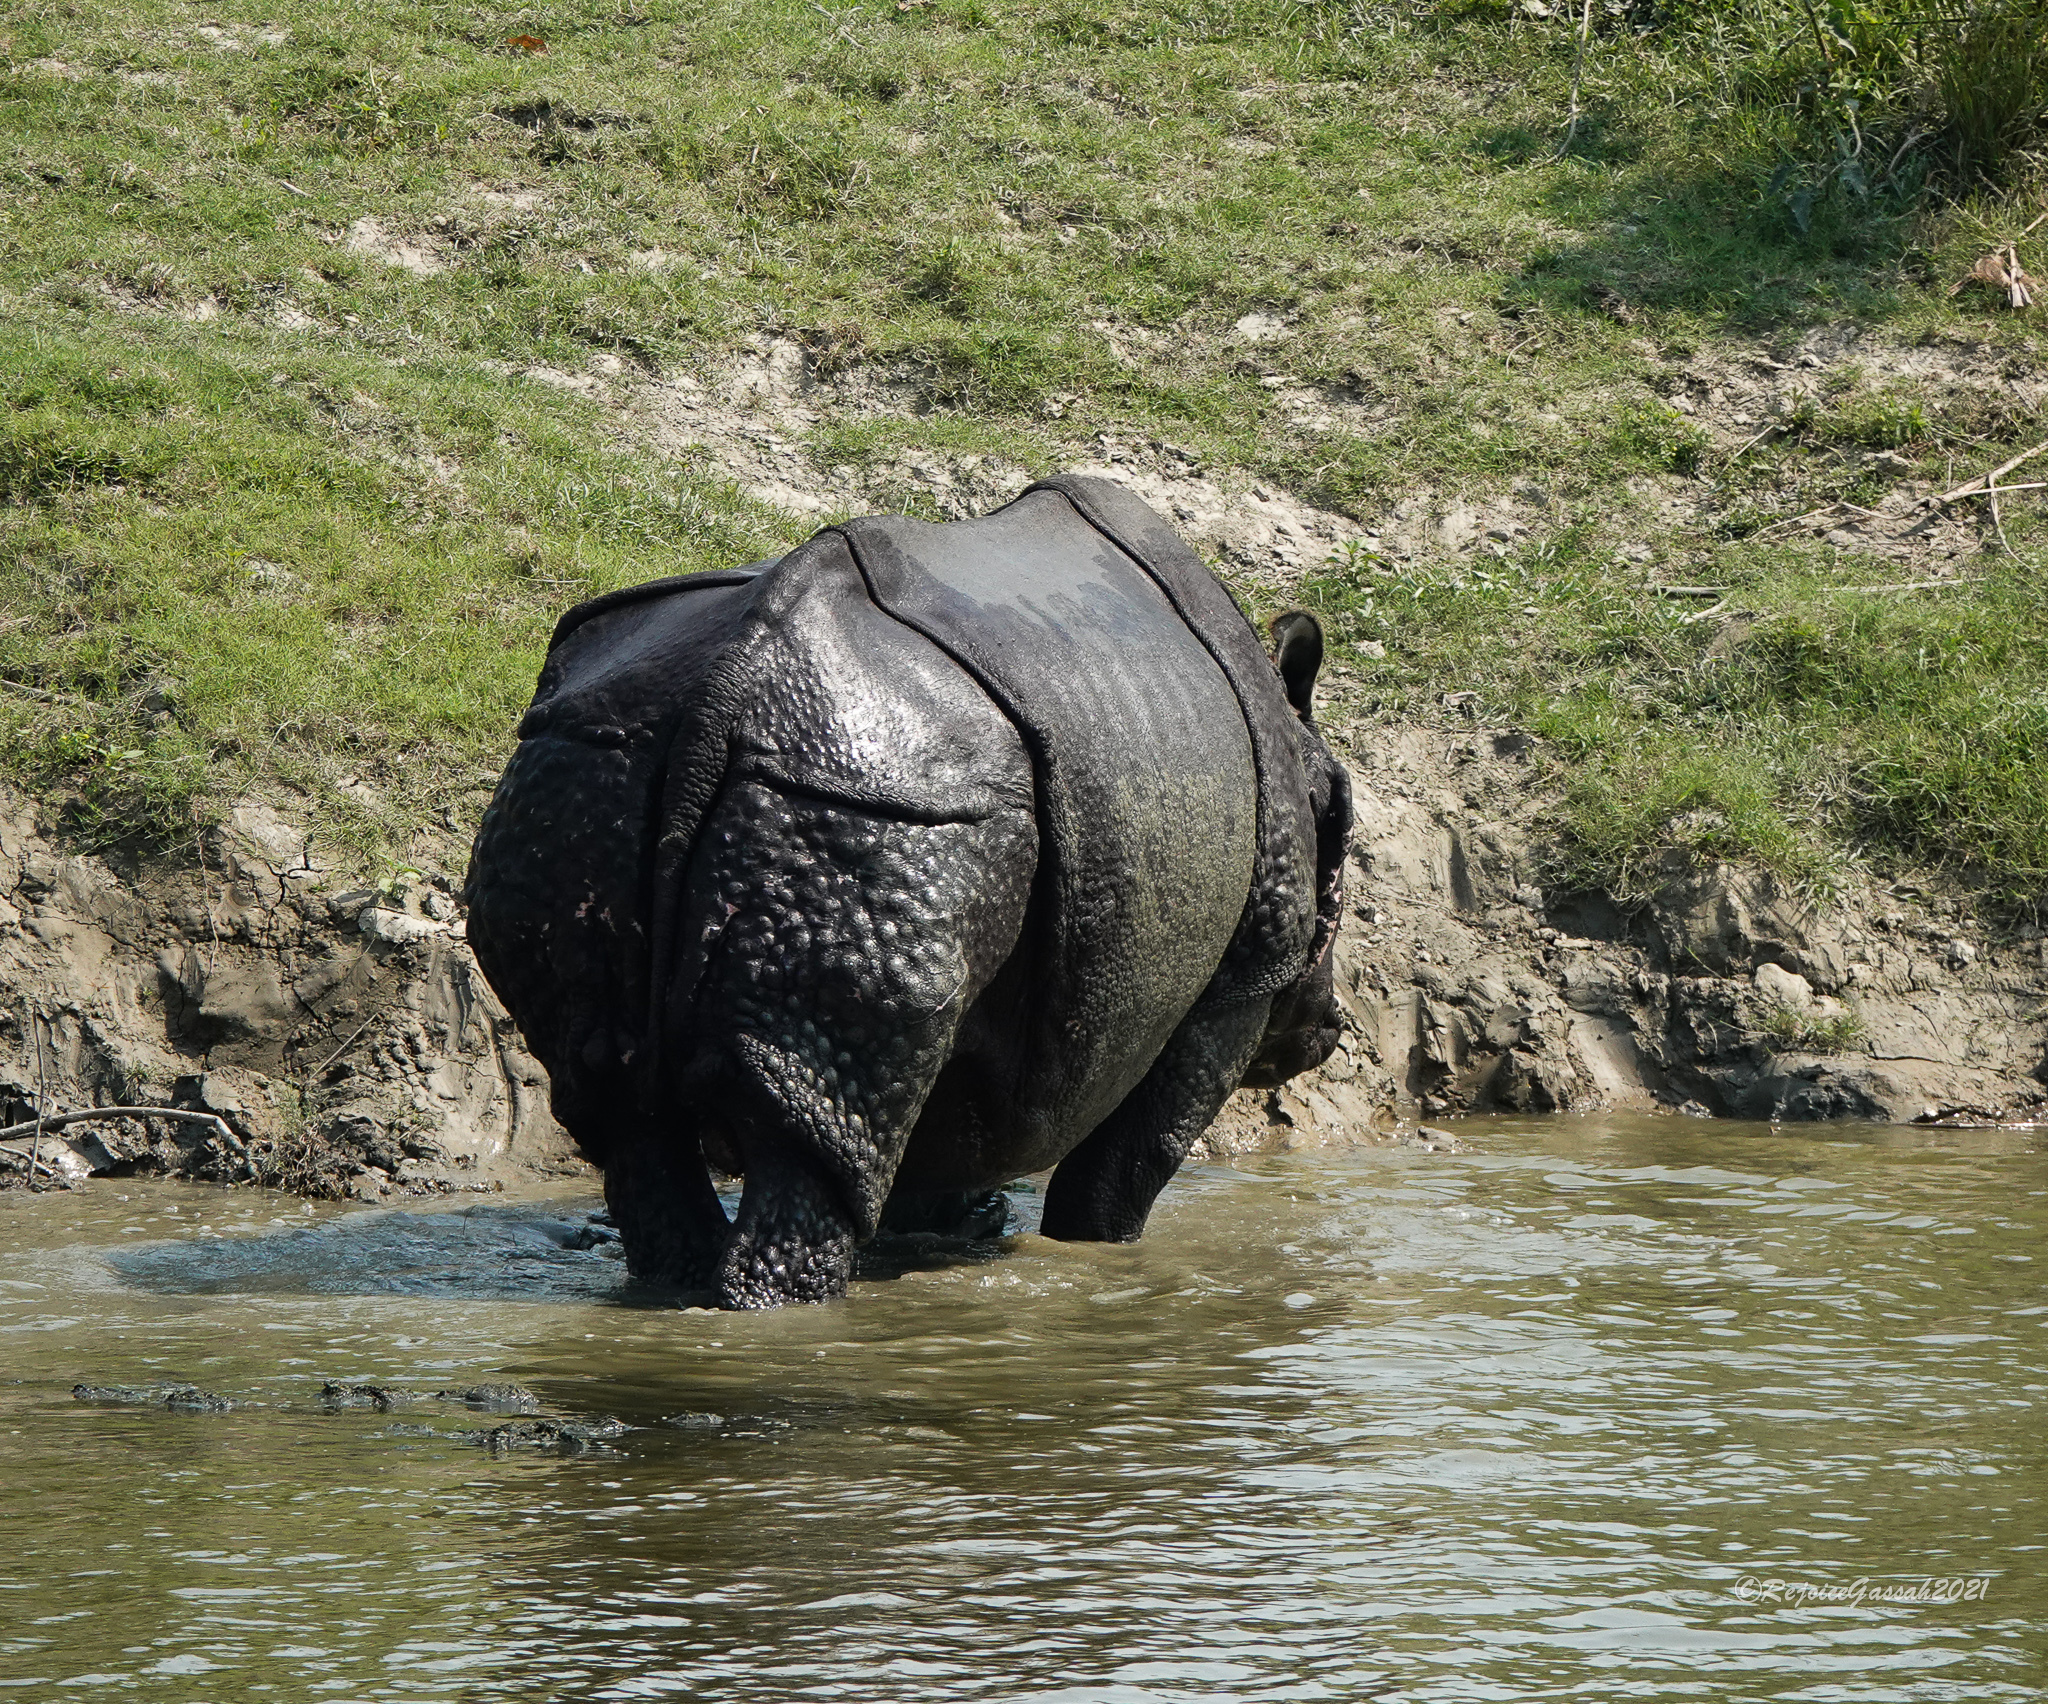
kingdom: Animalia
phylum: Chordata
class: Mammalia
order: Perissodactyla
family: Rhinocerotidae
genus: Rhinoceros
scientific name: Rhinoceros unicornis
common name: Indian rhinoceros
